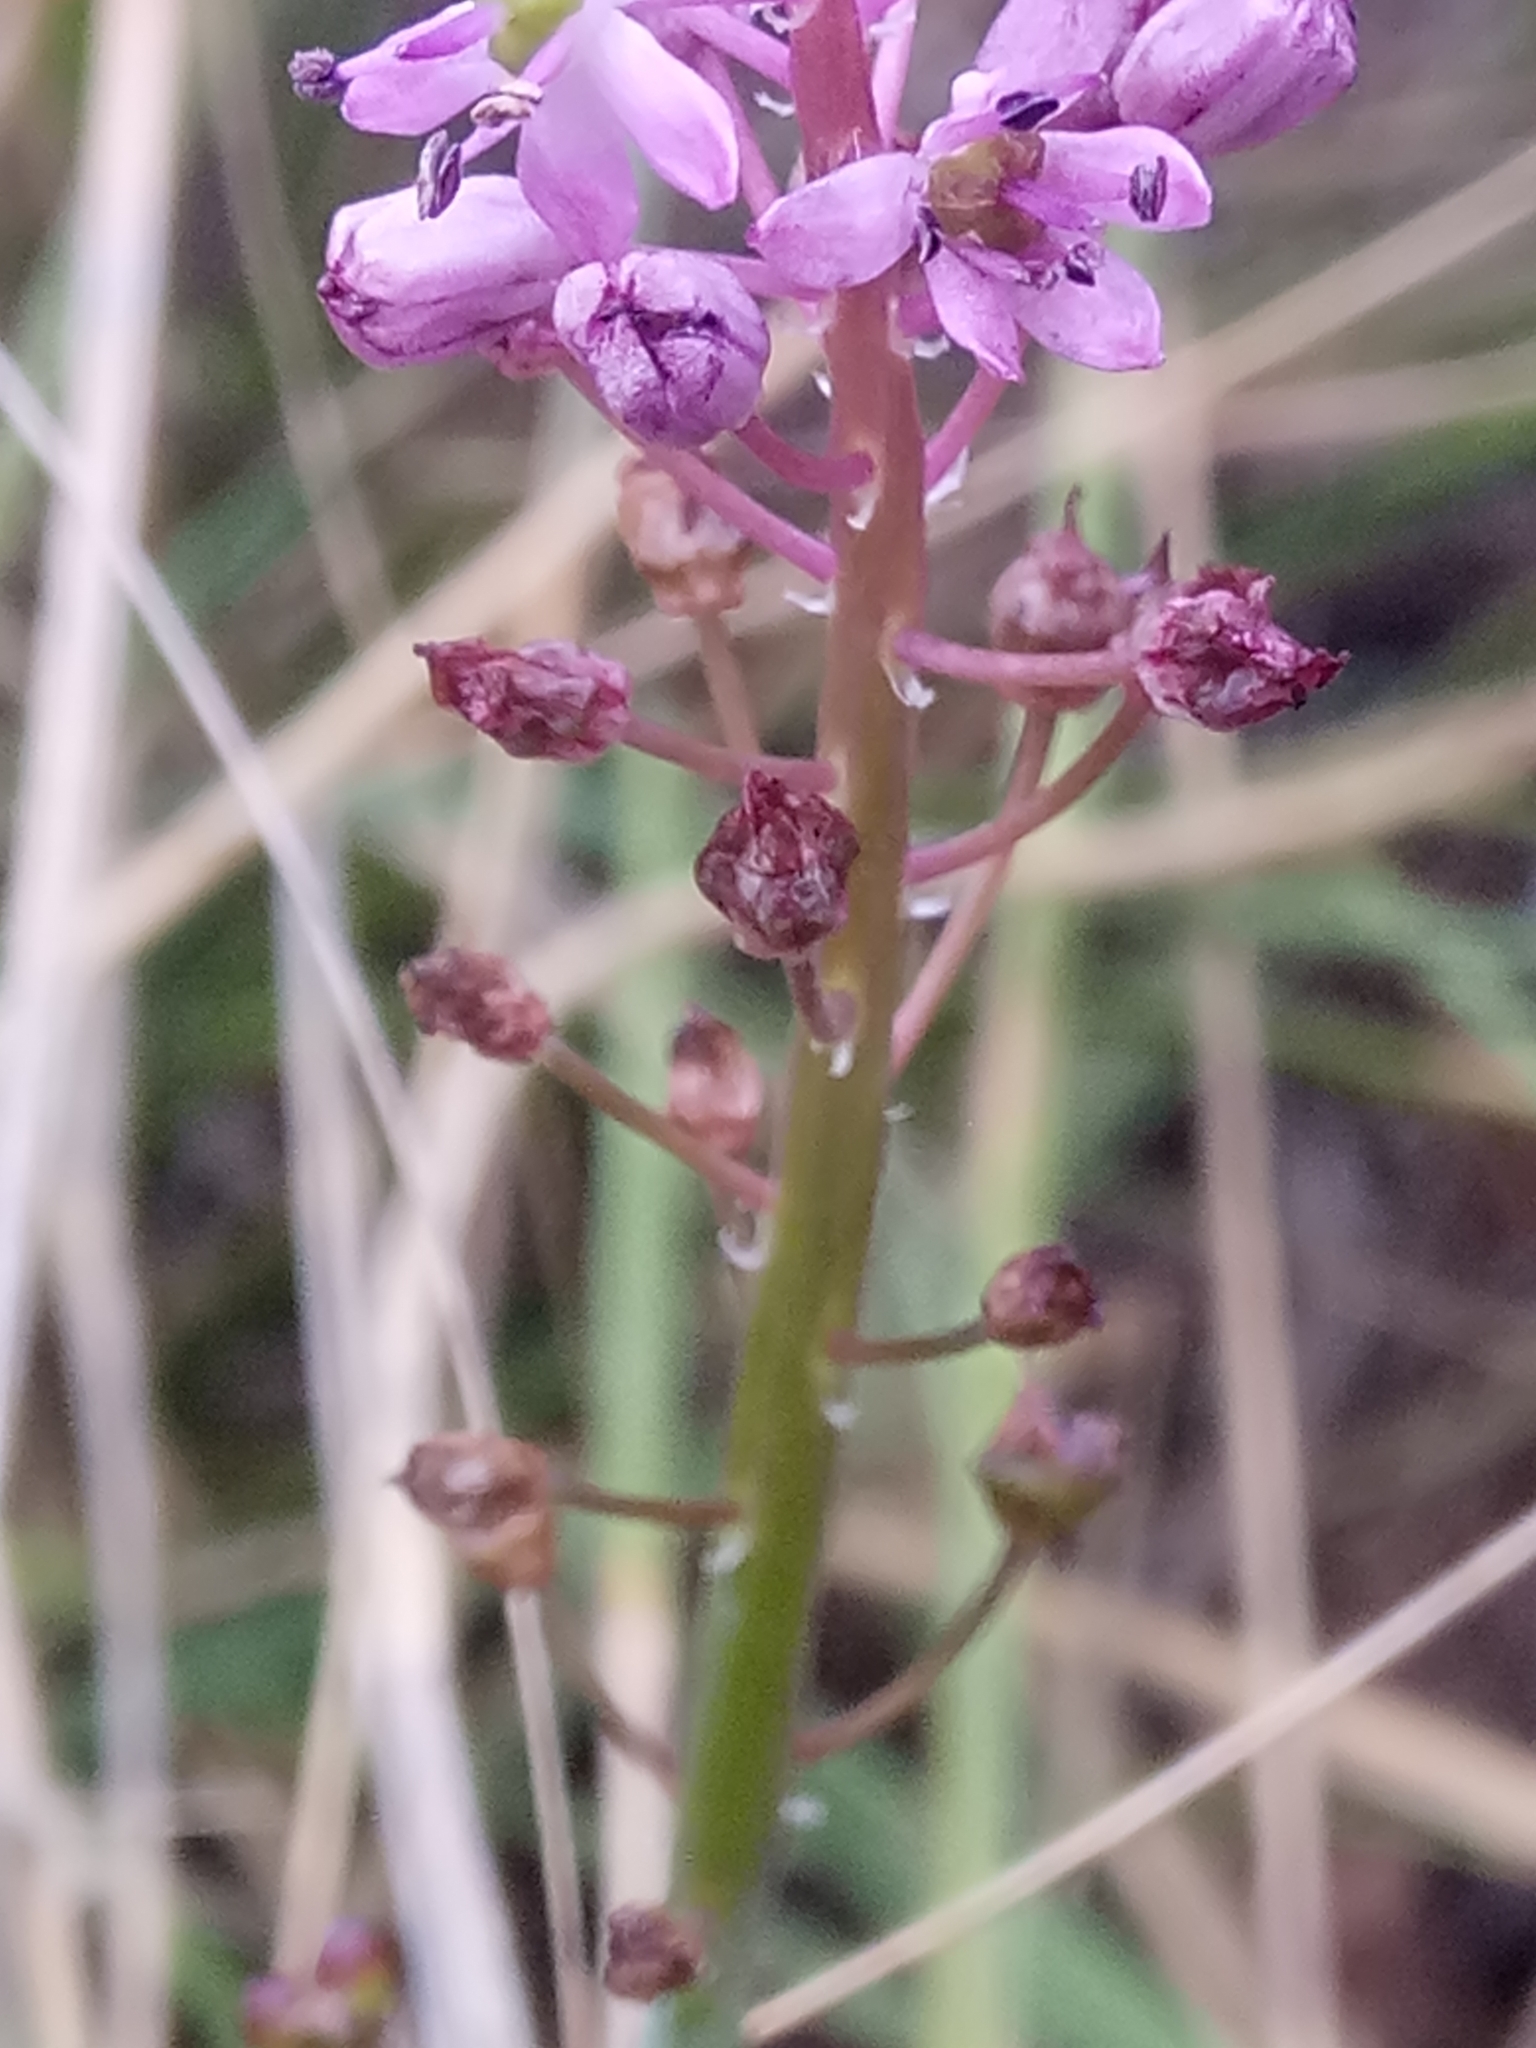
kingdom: Plantae
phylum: Tracheophyta
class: Liliopsida
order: Asparagales
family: Asparagaceae
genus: Barnardia
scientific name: Barnardia numidica
